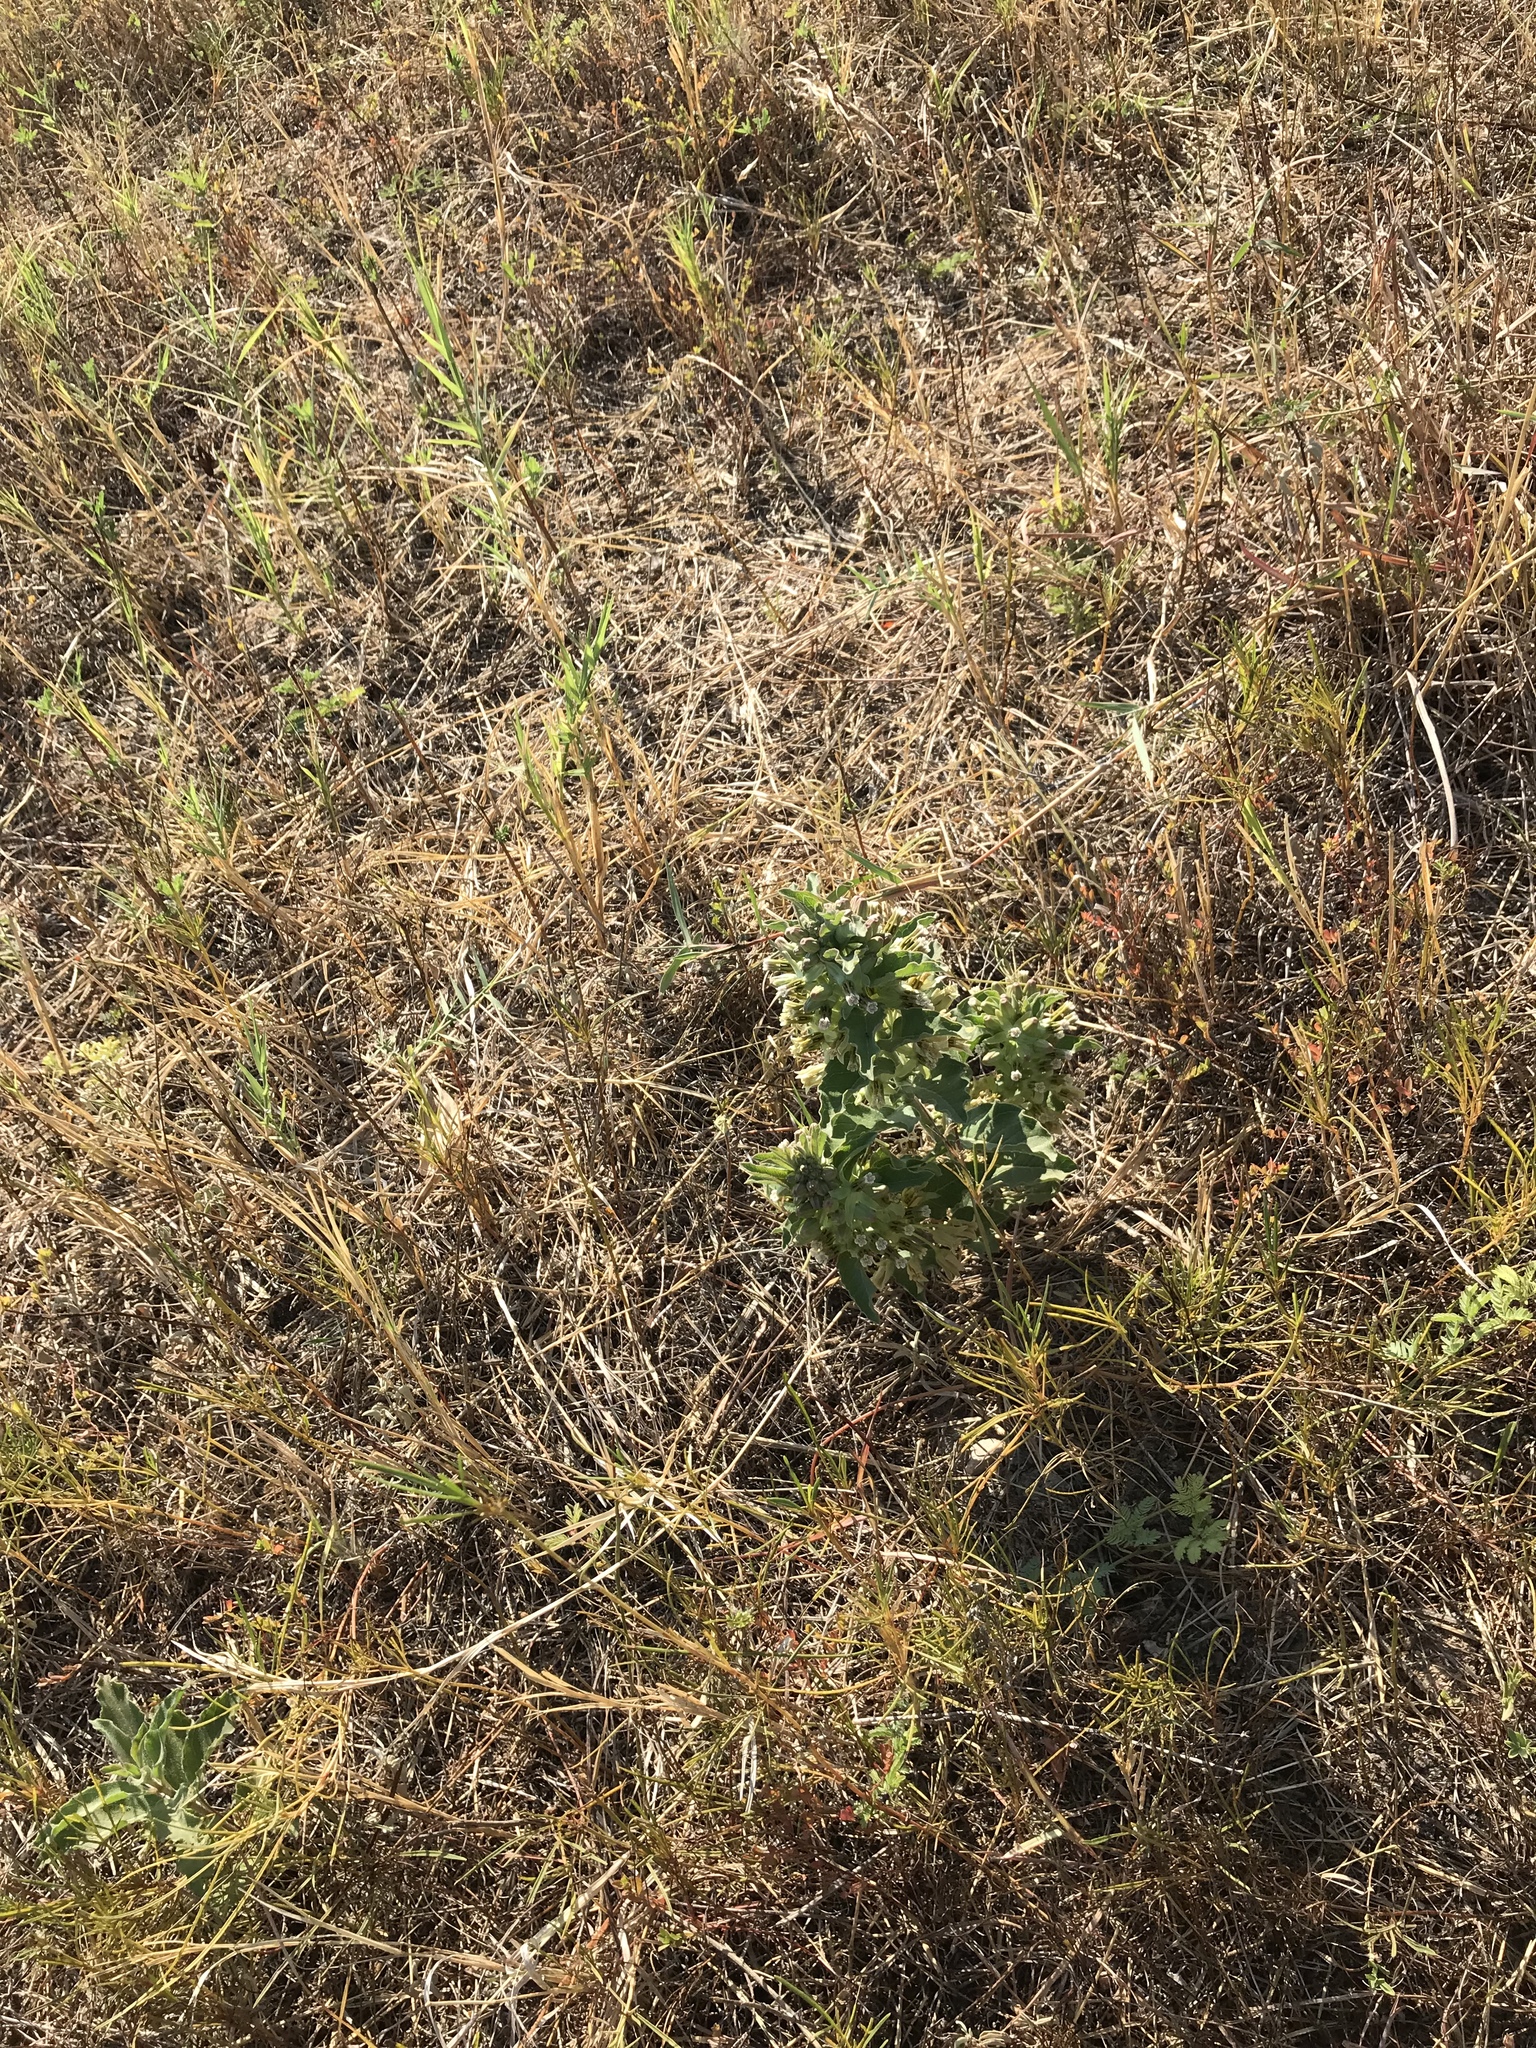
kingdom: Plantae
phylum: Tracheophyta
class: Magnoliopsida
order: Gentianales
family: Apocynaceae
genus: Asclepias
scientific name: Asclepias oenotheroides
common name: Zizotes milkweed
